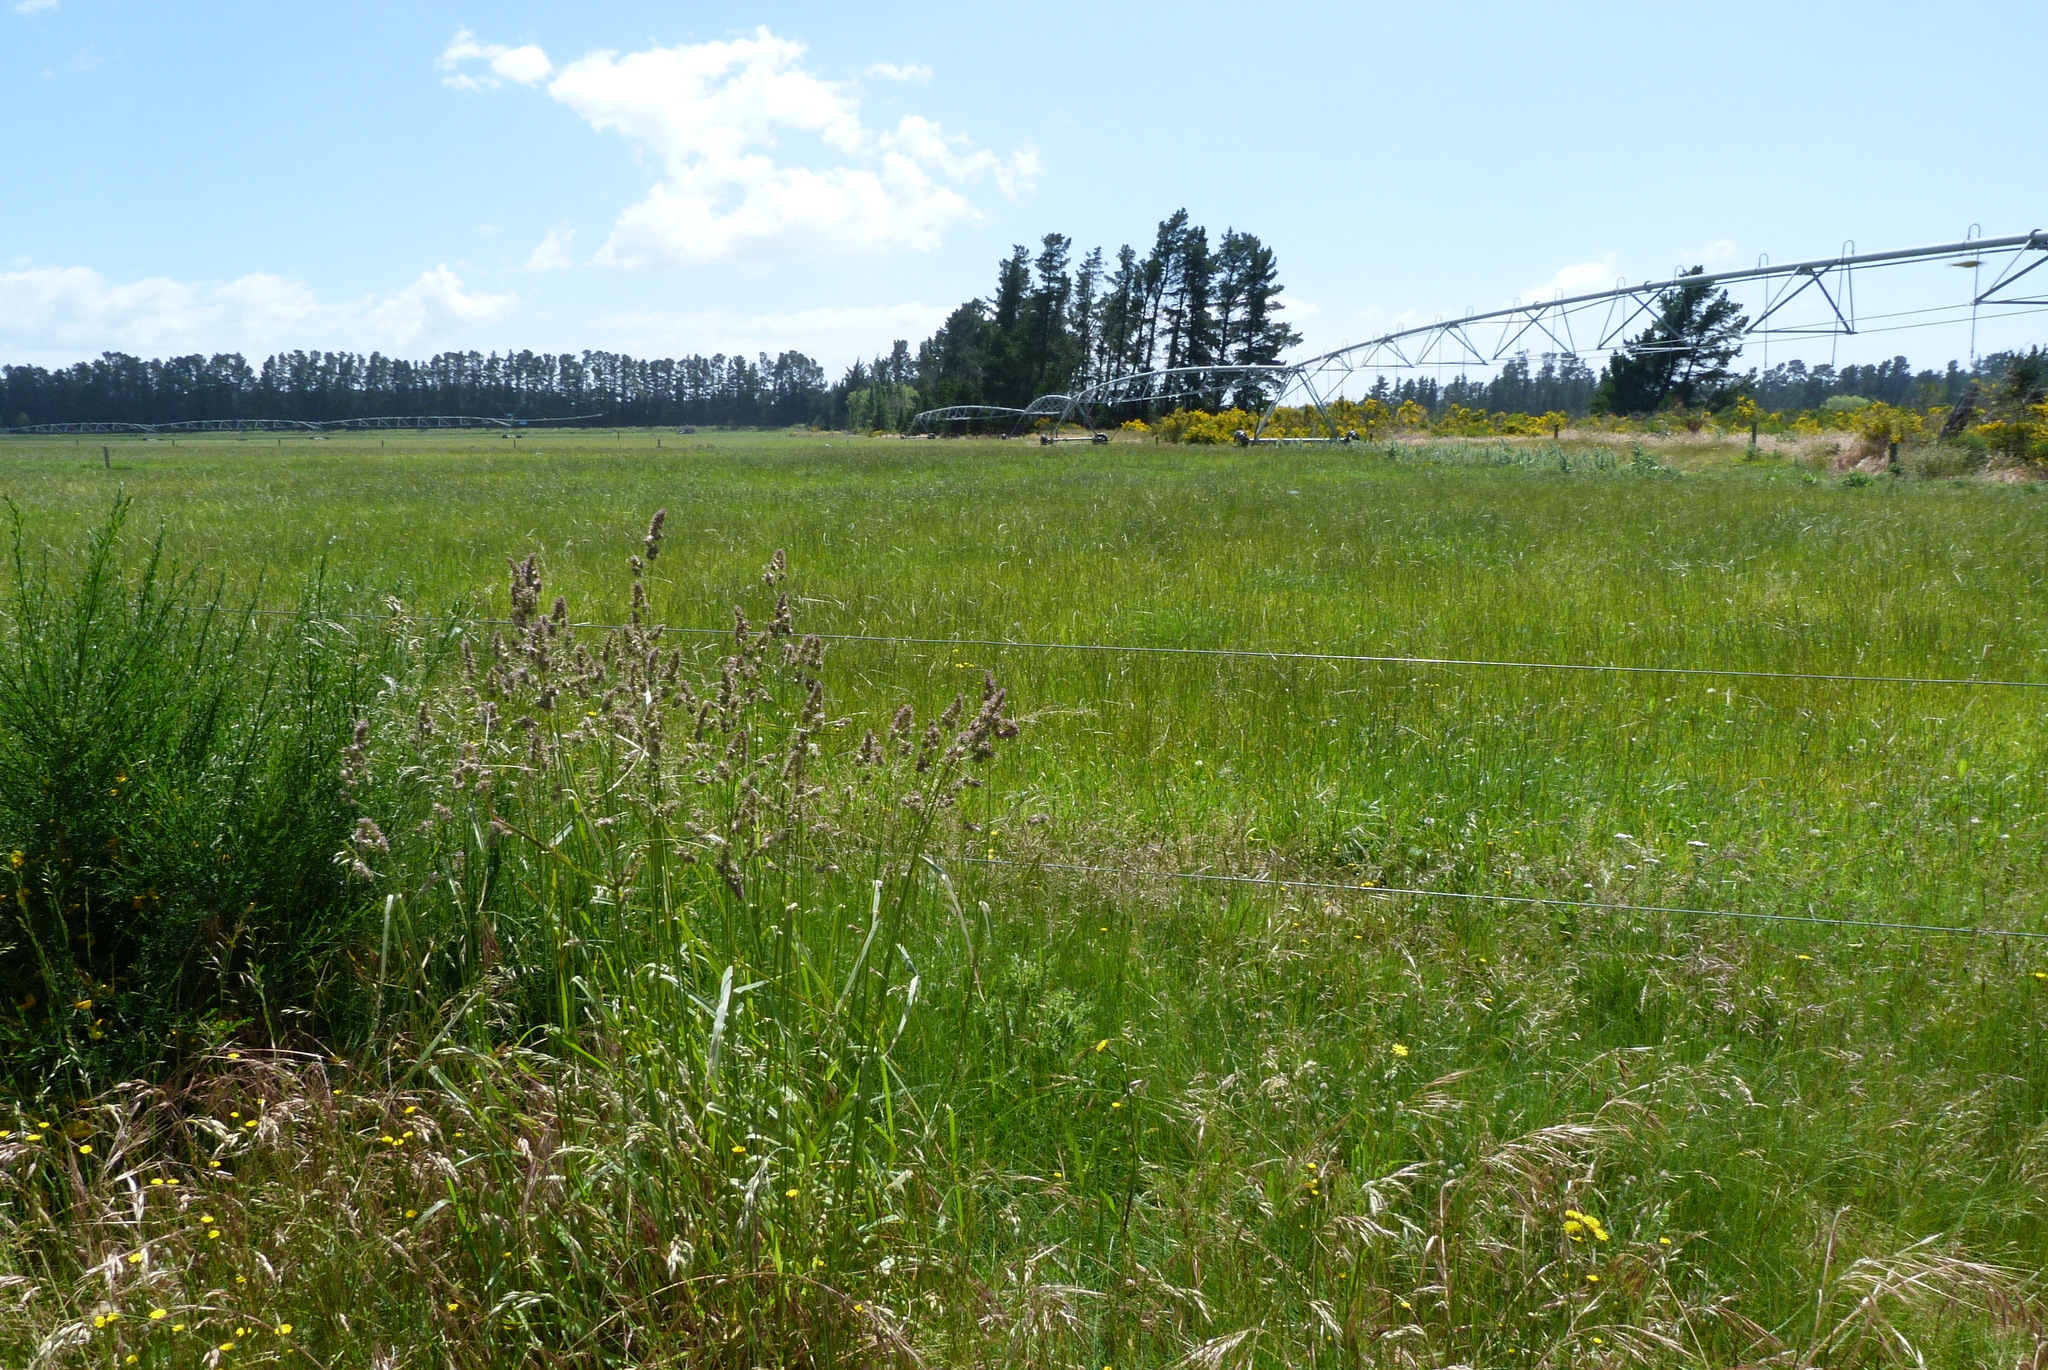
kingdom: Plantae
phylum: Tracheophyta
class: Liliopsida
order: Poales
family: Poaceae
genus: Dactylis
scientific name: Dactylis glomerata
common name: Orchardgrass
